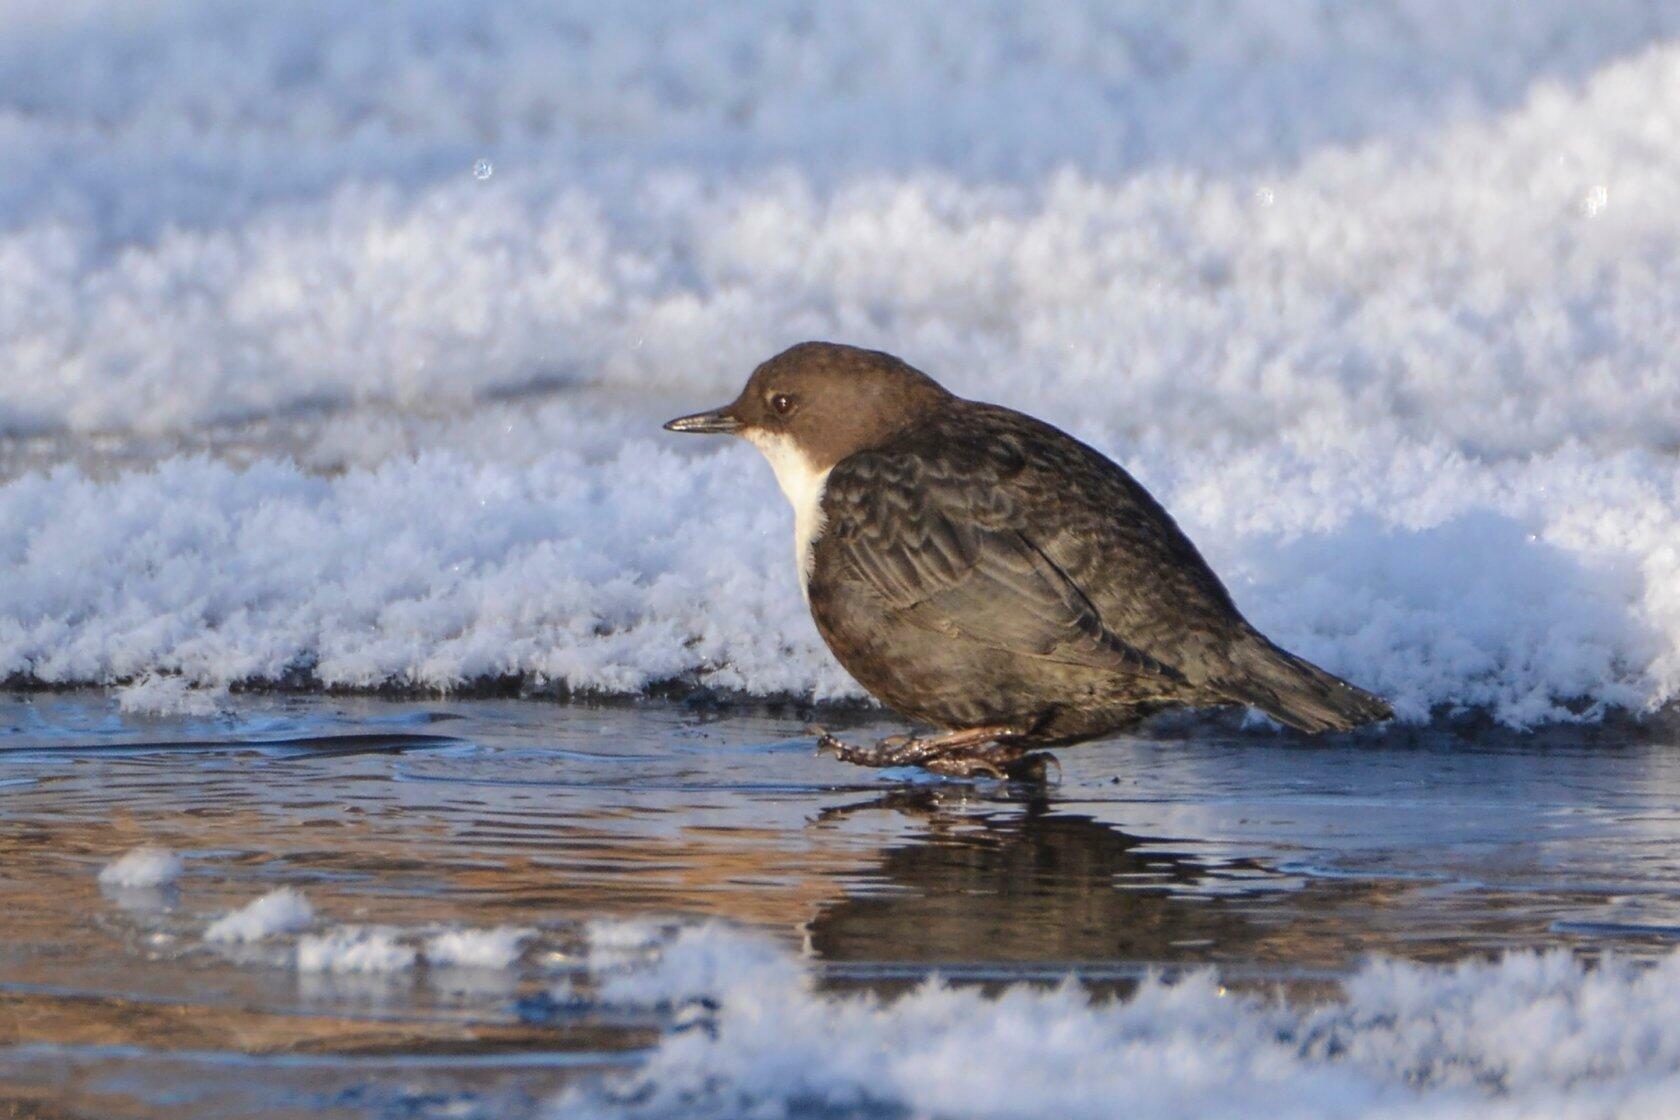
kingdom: Animalia
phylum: Chordata
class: Aves
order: Passeriformes
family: Cinclidae
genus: Cinclus
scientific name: Cinclus cinclus
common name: White-throated dipper
